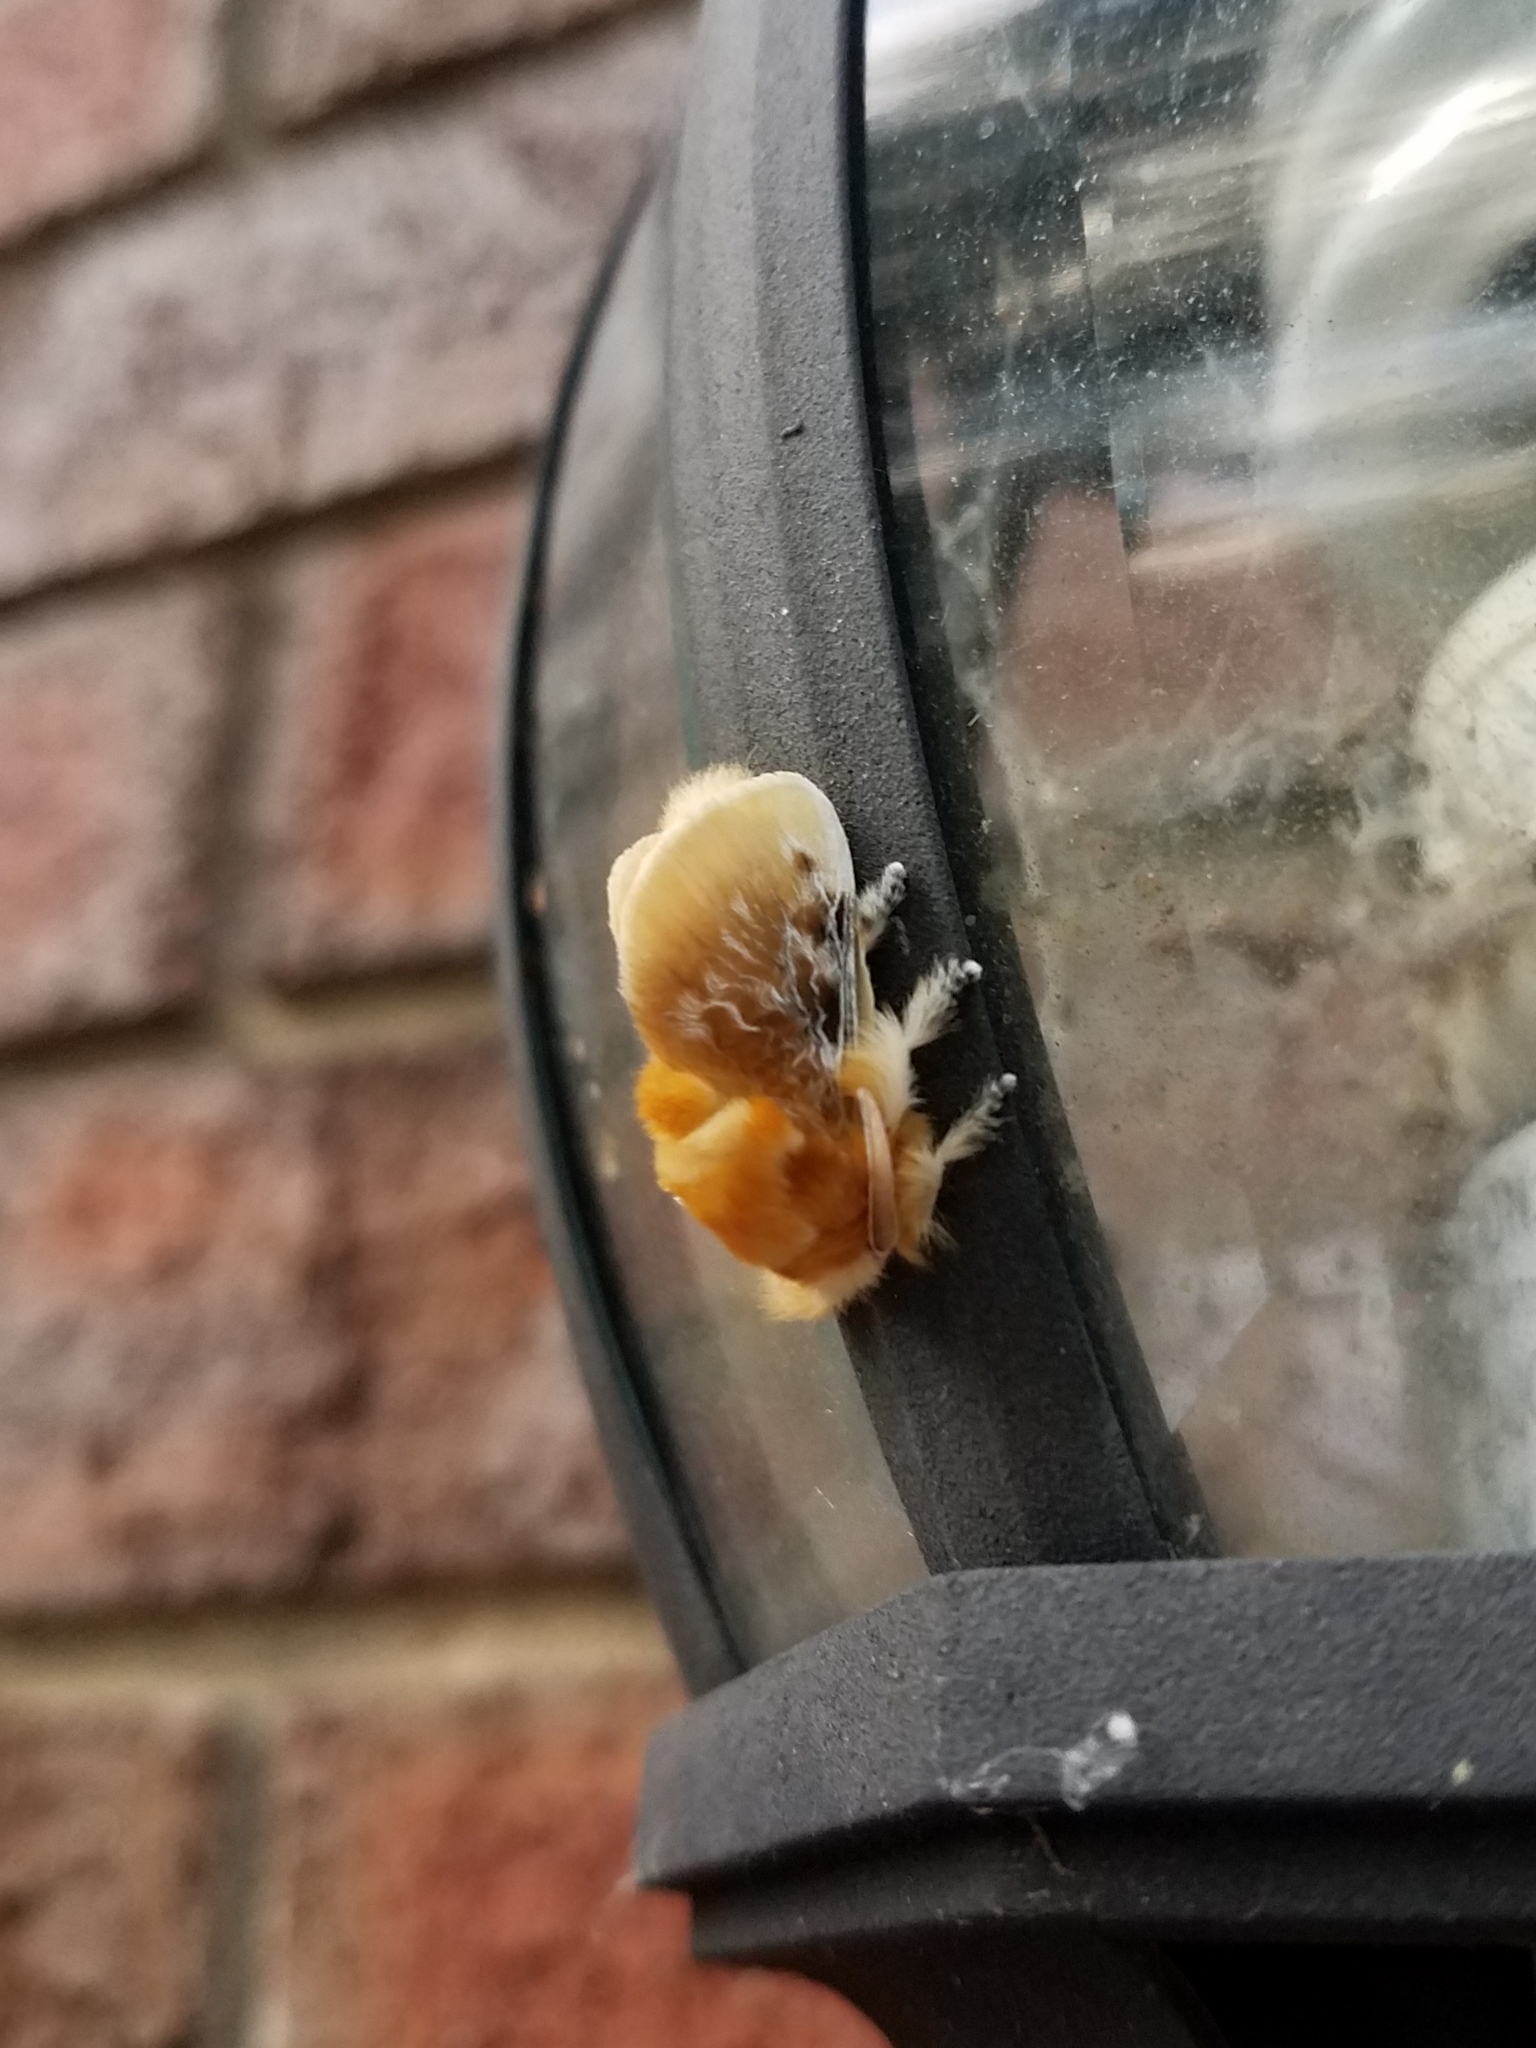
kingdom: Animalia
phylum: Arthropoda
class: Insecta
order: Lepidoptera
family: Megalopygidae
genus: Megalopyge
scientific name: Megalopyge opercularis
